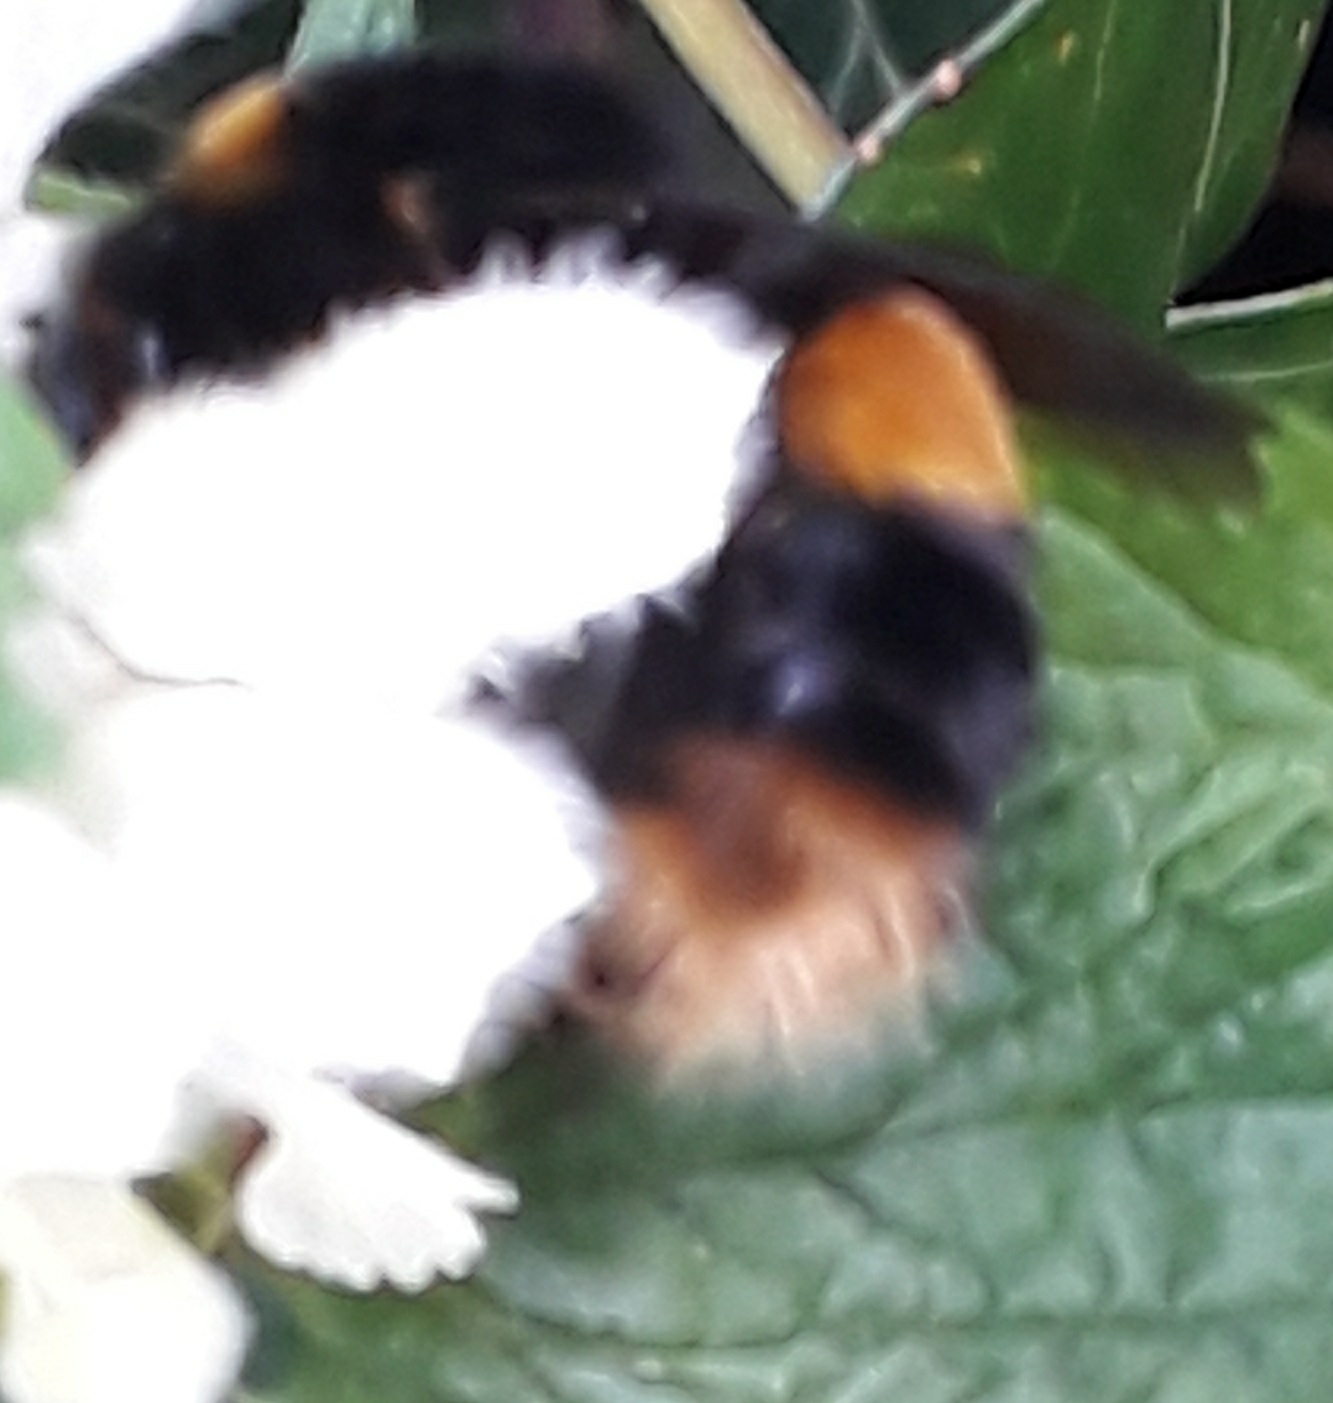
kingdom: Animalia
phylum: Arthropoda
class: Insecta
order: Hymenoptera
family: Apidae
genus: Bombus
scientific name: Bombus terrestris
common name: Buff-tailed bumblebee
